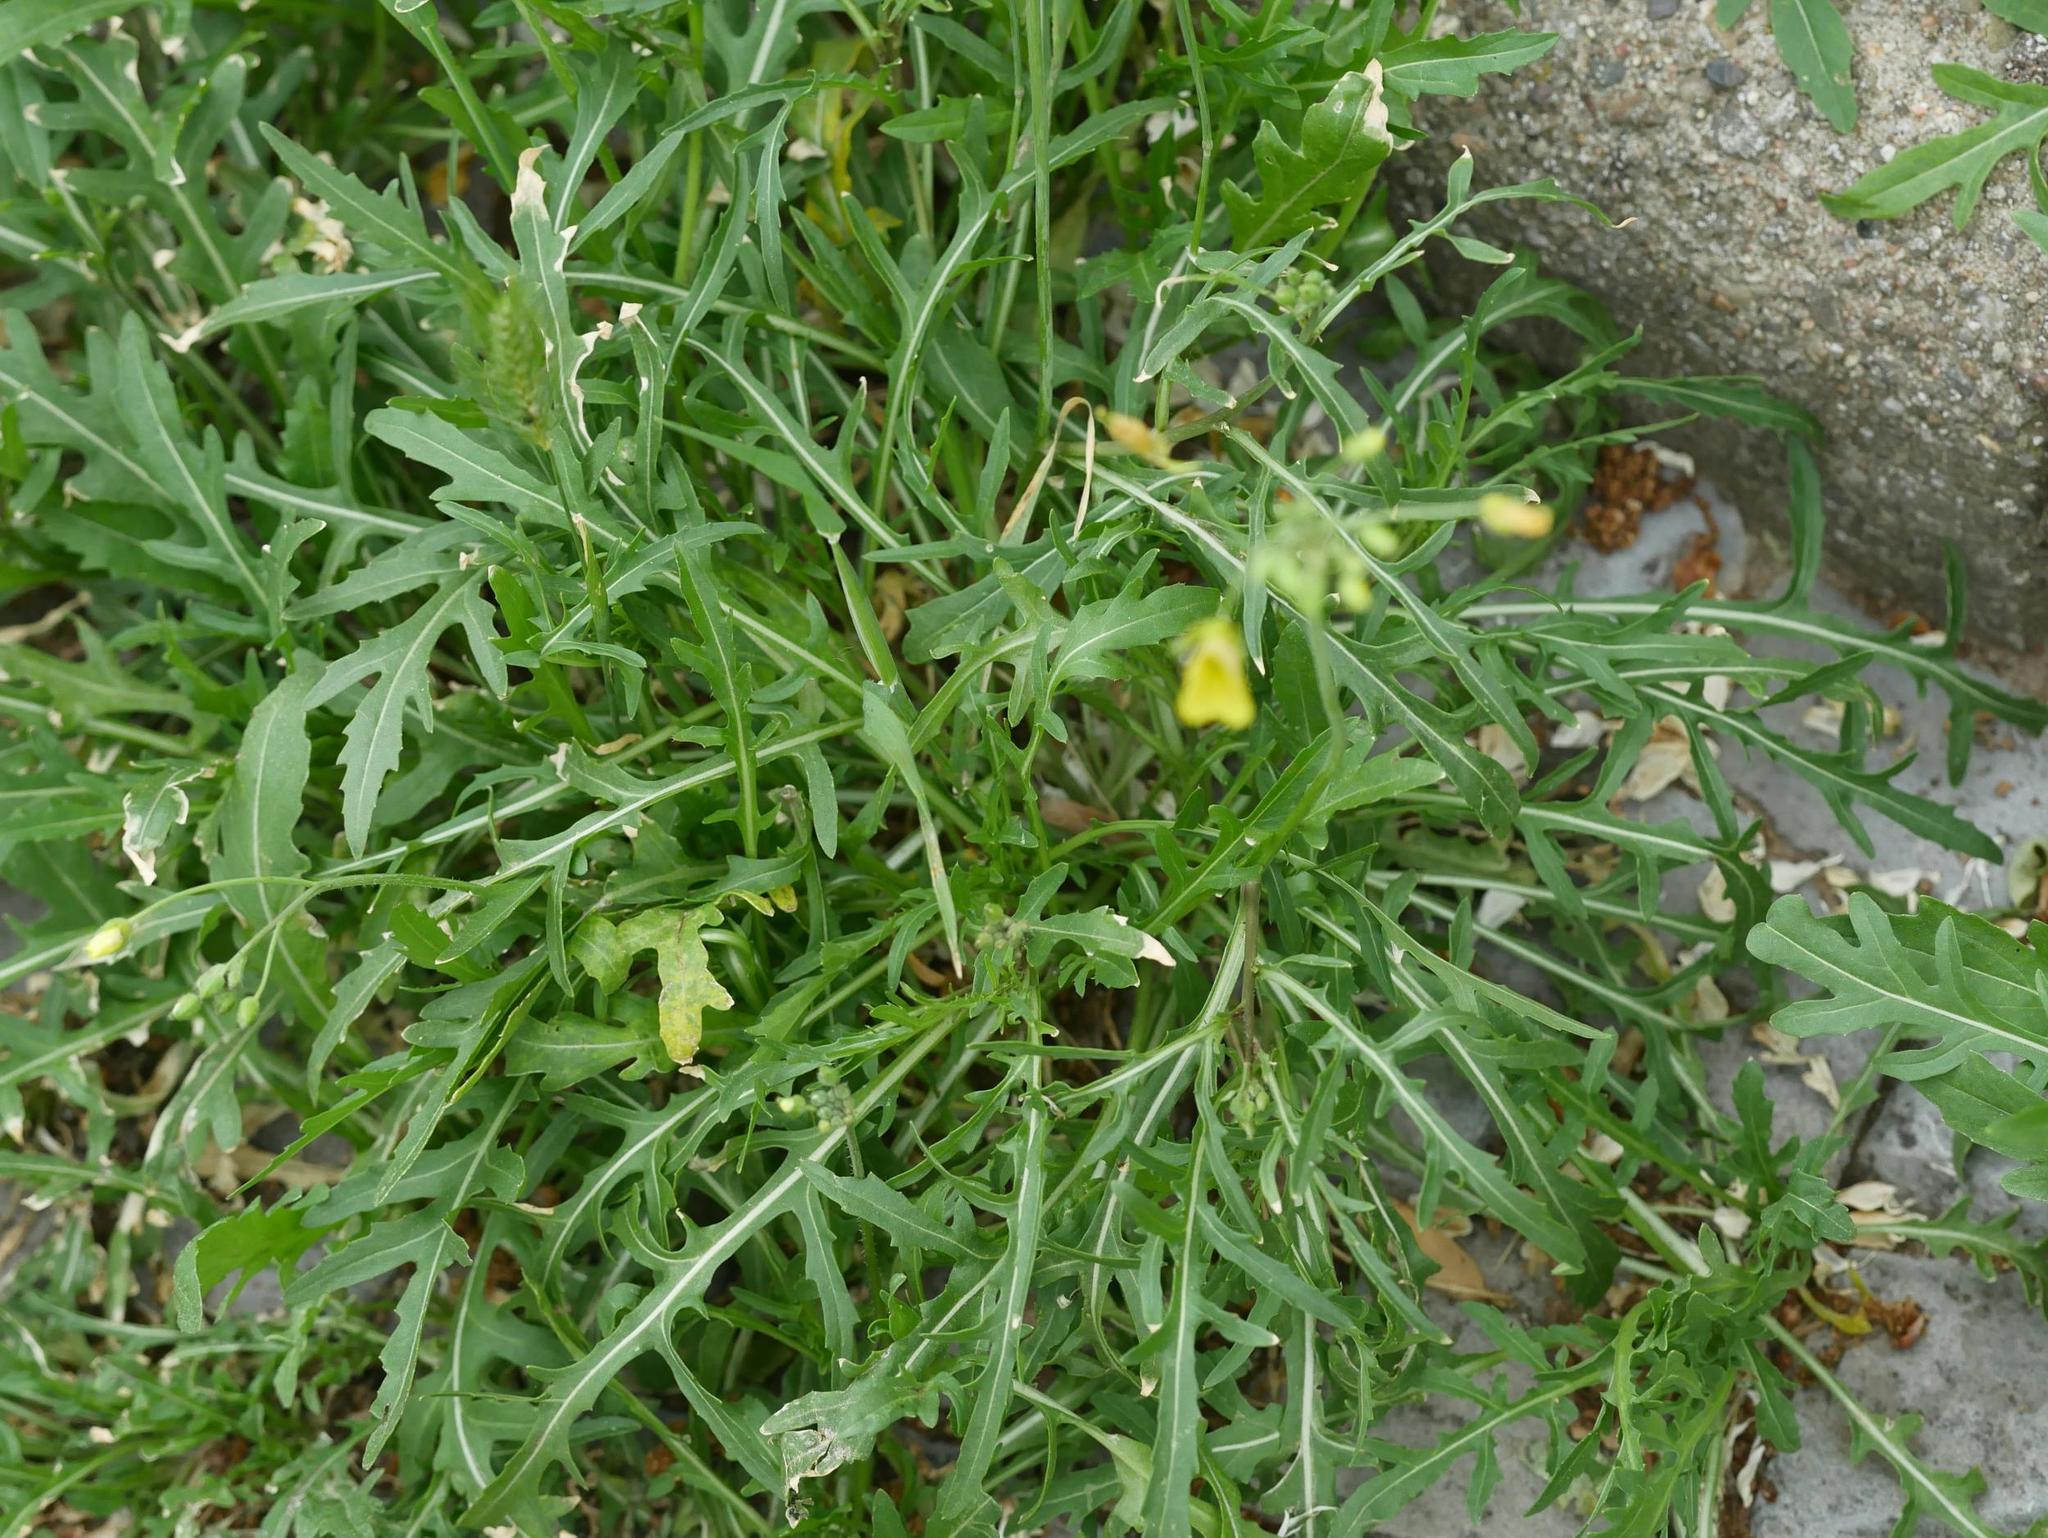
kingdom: Plantae
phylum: Tracheophyta
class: Magnoliopsida
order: Brassicales
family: Brassicaceae
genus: Diplotaxis
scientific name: Diplotaxis tenuifolia
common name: Perennial wall-rocket
